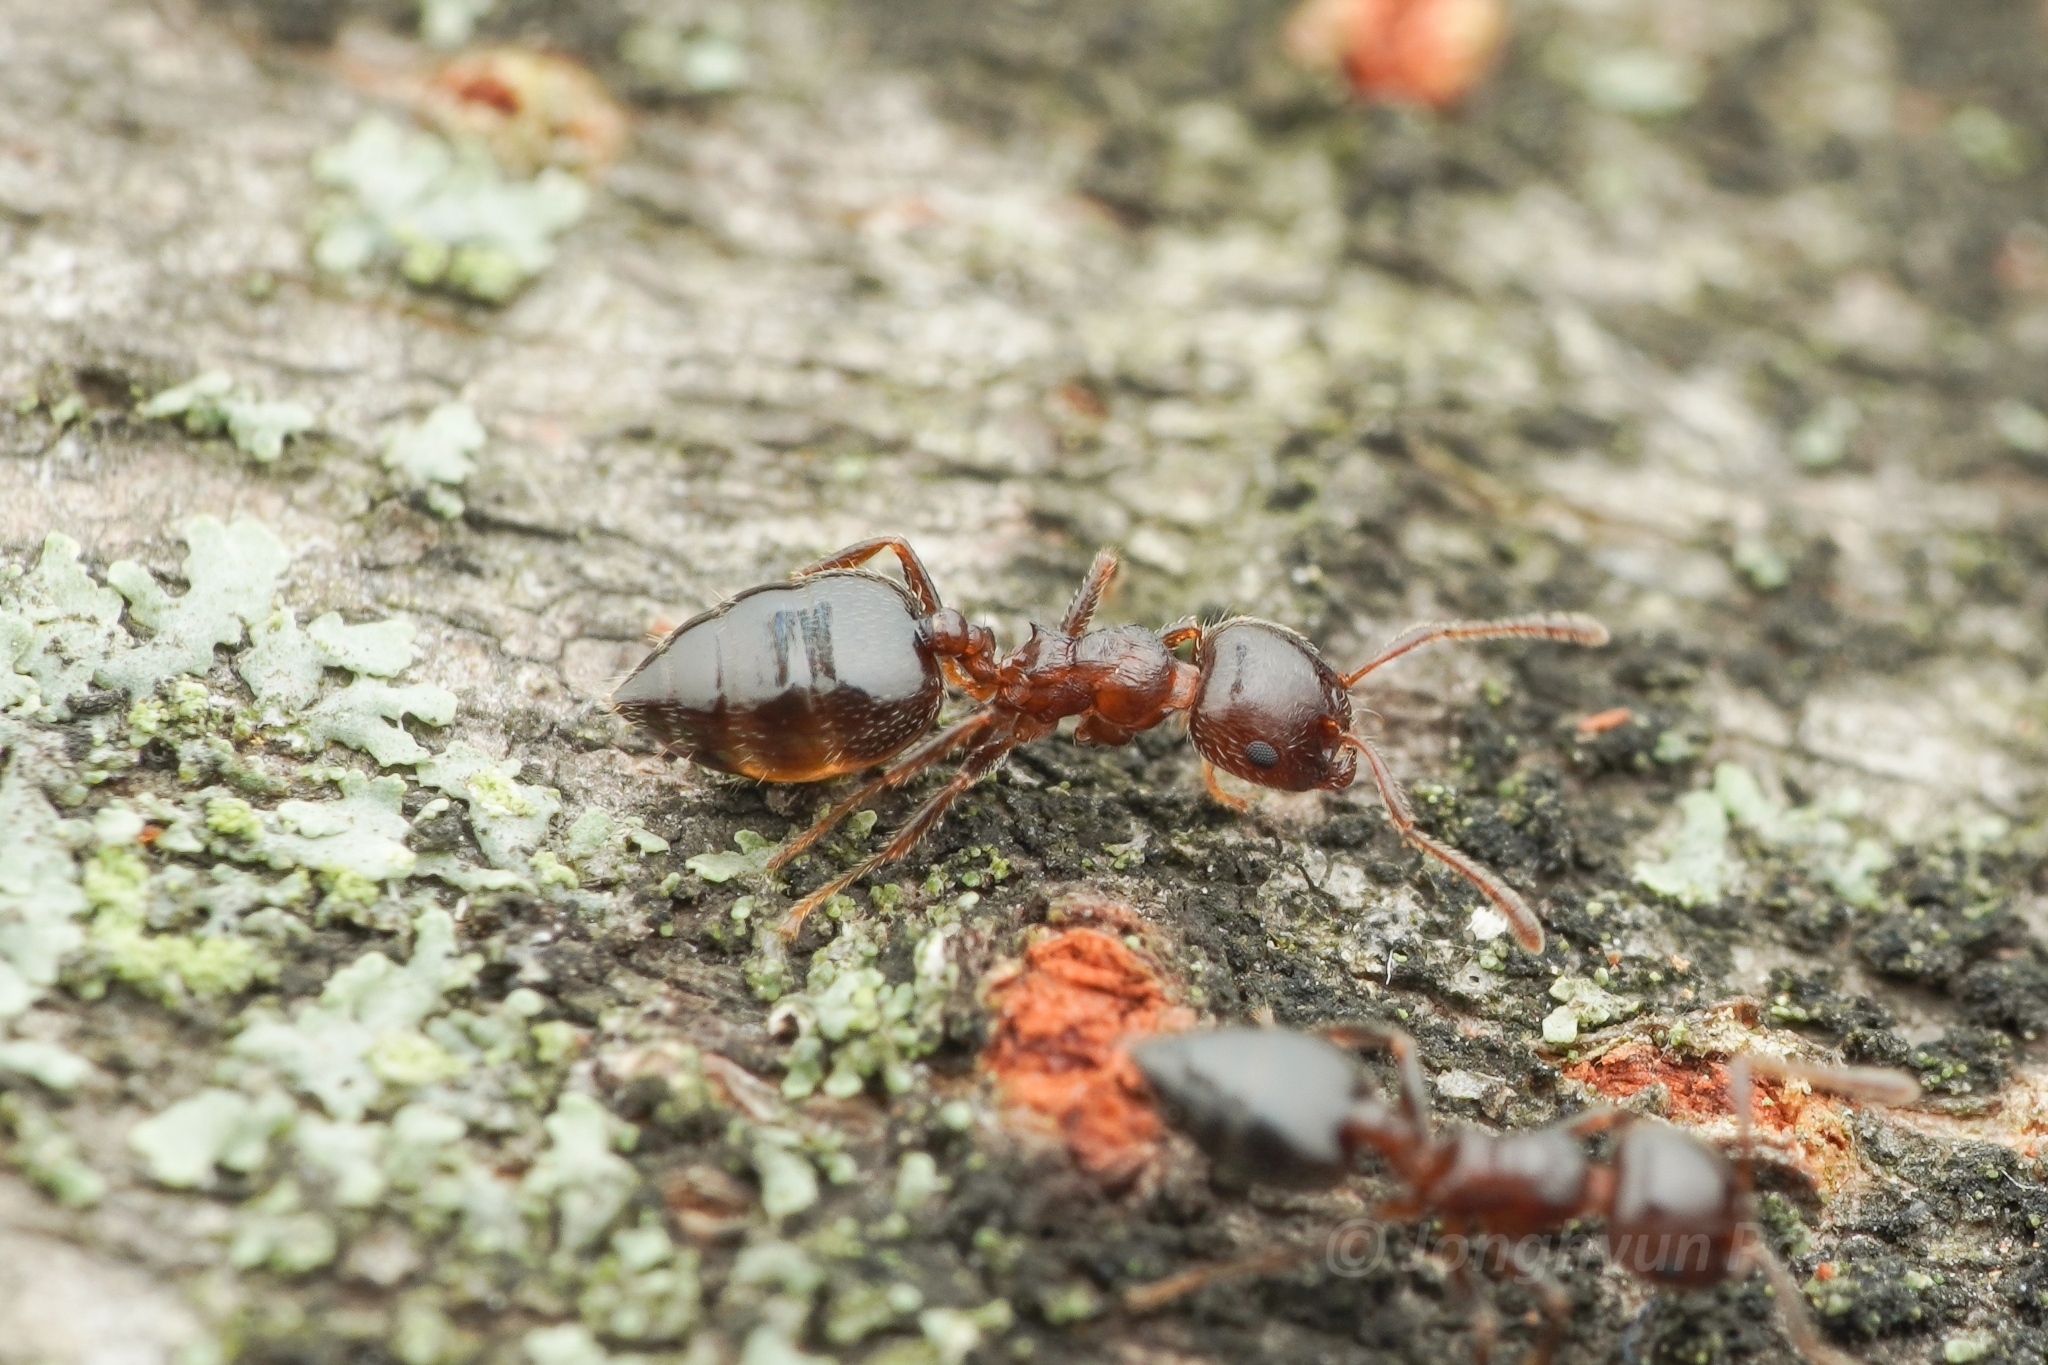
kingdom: Animalia
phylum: Arthropoda
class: Insecta
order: Hymenoptera
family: Formicidae
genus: Crematogaster
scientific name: Crematogaster matsumurai
